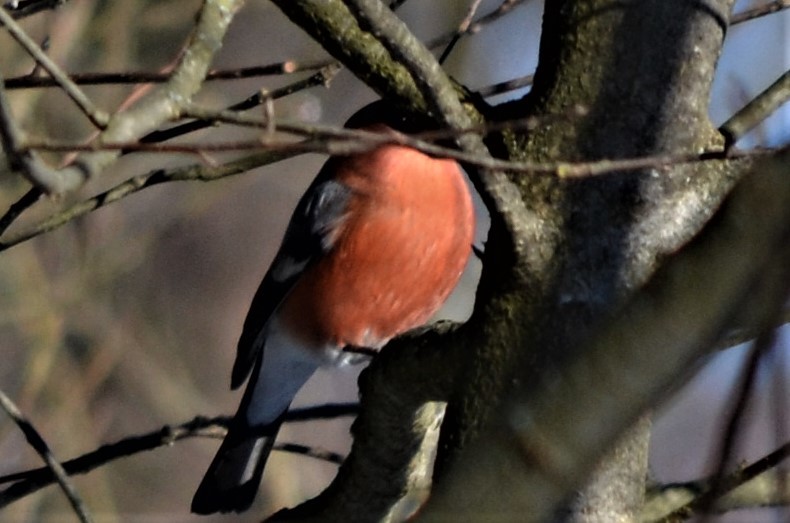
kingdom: Animalia
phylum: Chordata
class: Aves
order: Passeriformes
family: Fringillidae
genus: Pyrrhula
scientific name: Pyrrhula pyrrhula
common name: Eurasian bullfinch
